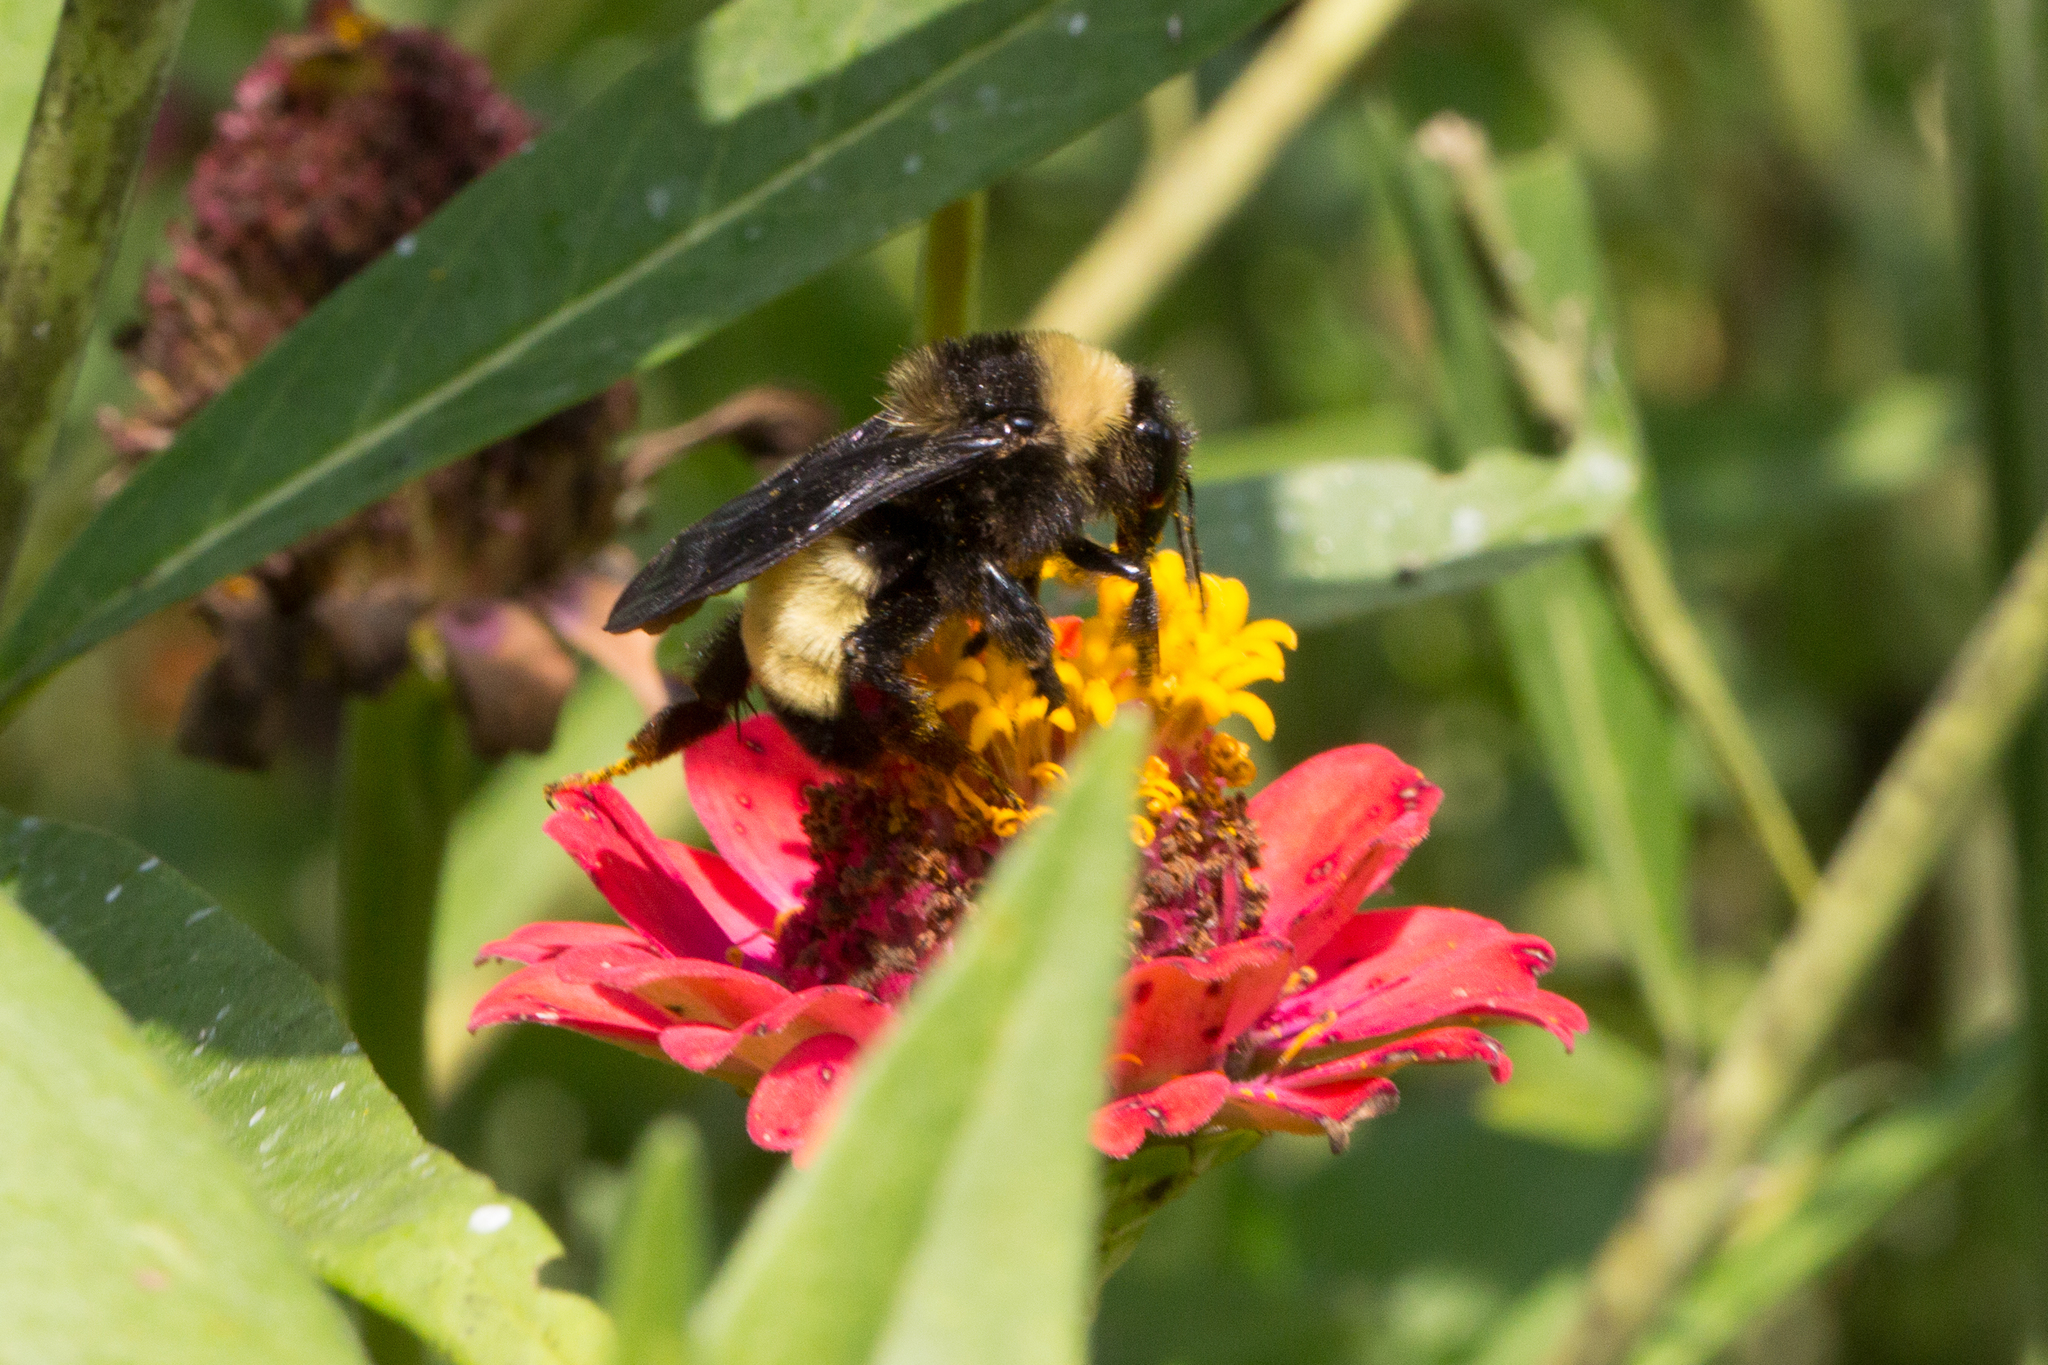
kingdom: Animalia
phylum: Arthropoda
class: Insecta
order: Hymenoptera
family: Apidae
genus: Bombus
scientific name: Bombus pensylvanicus
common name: Bumble bee
